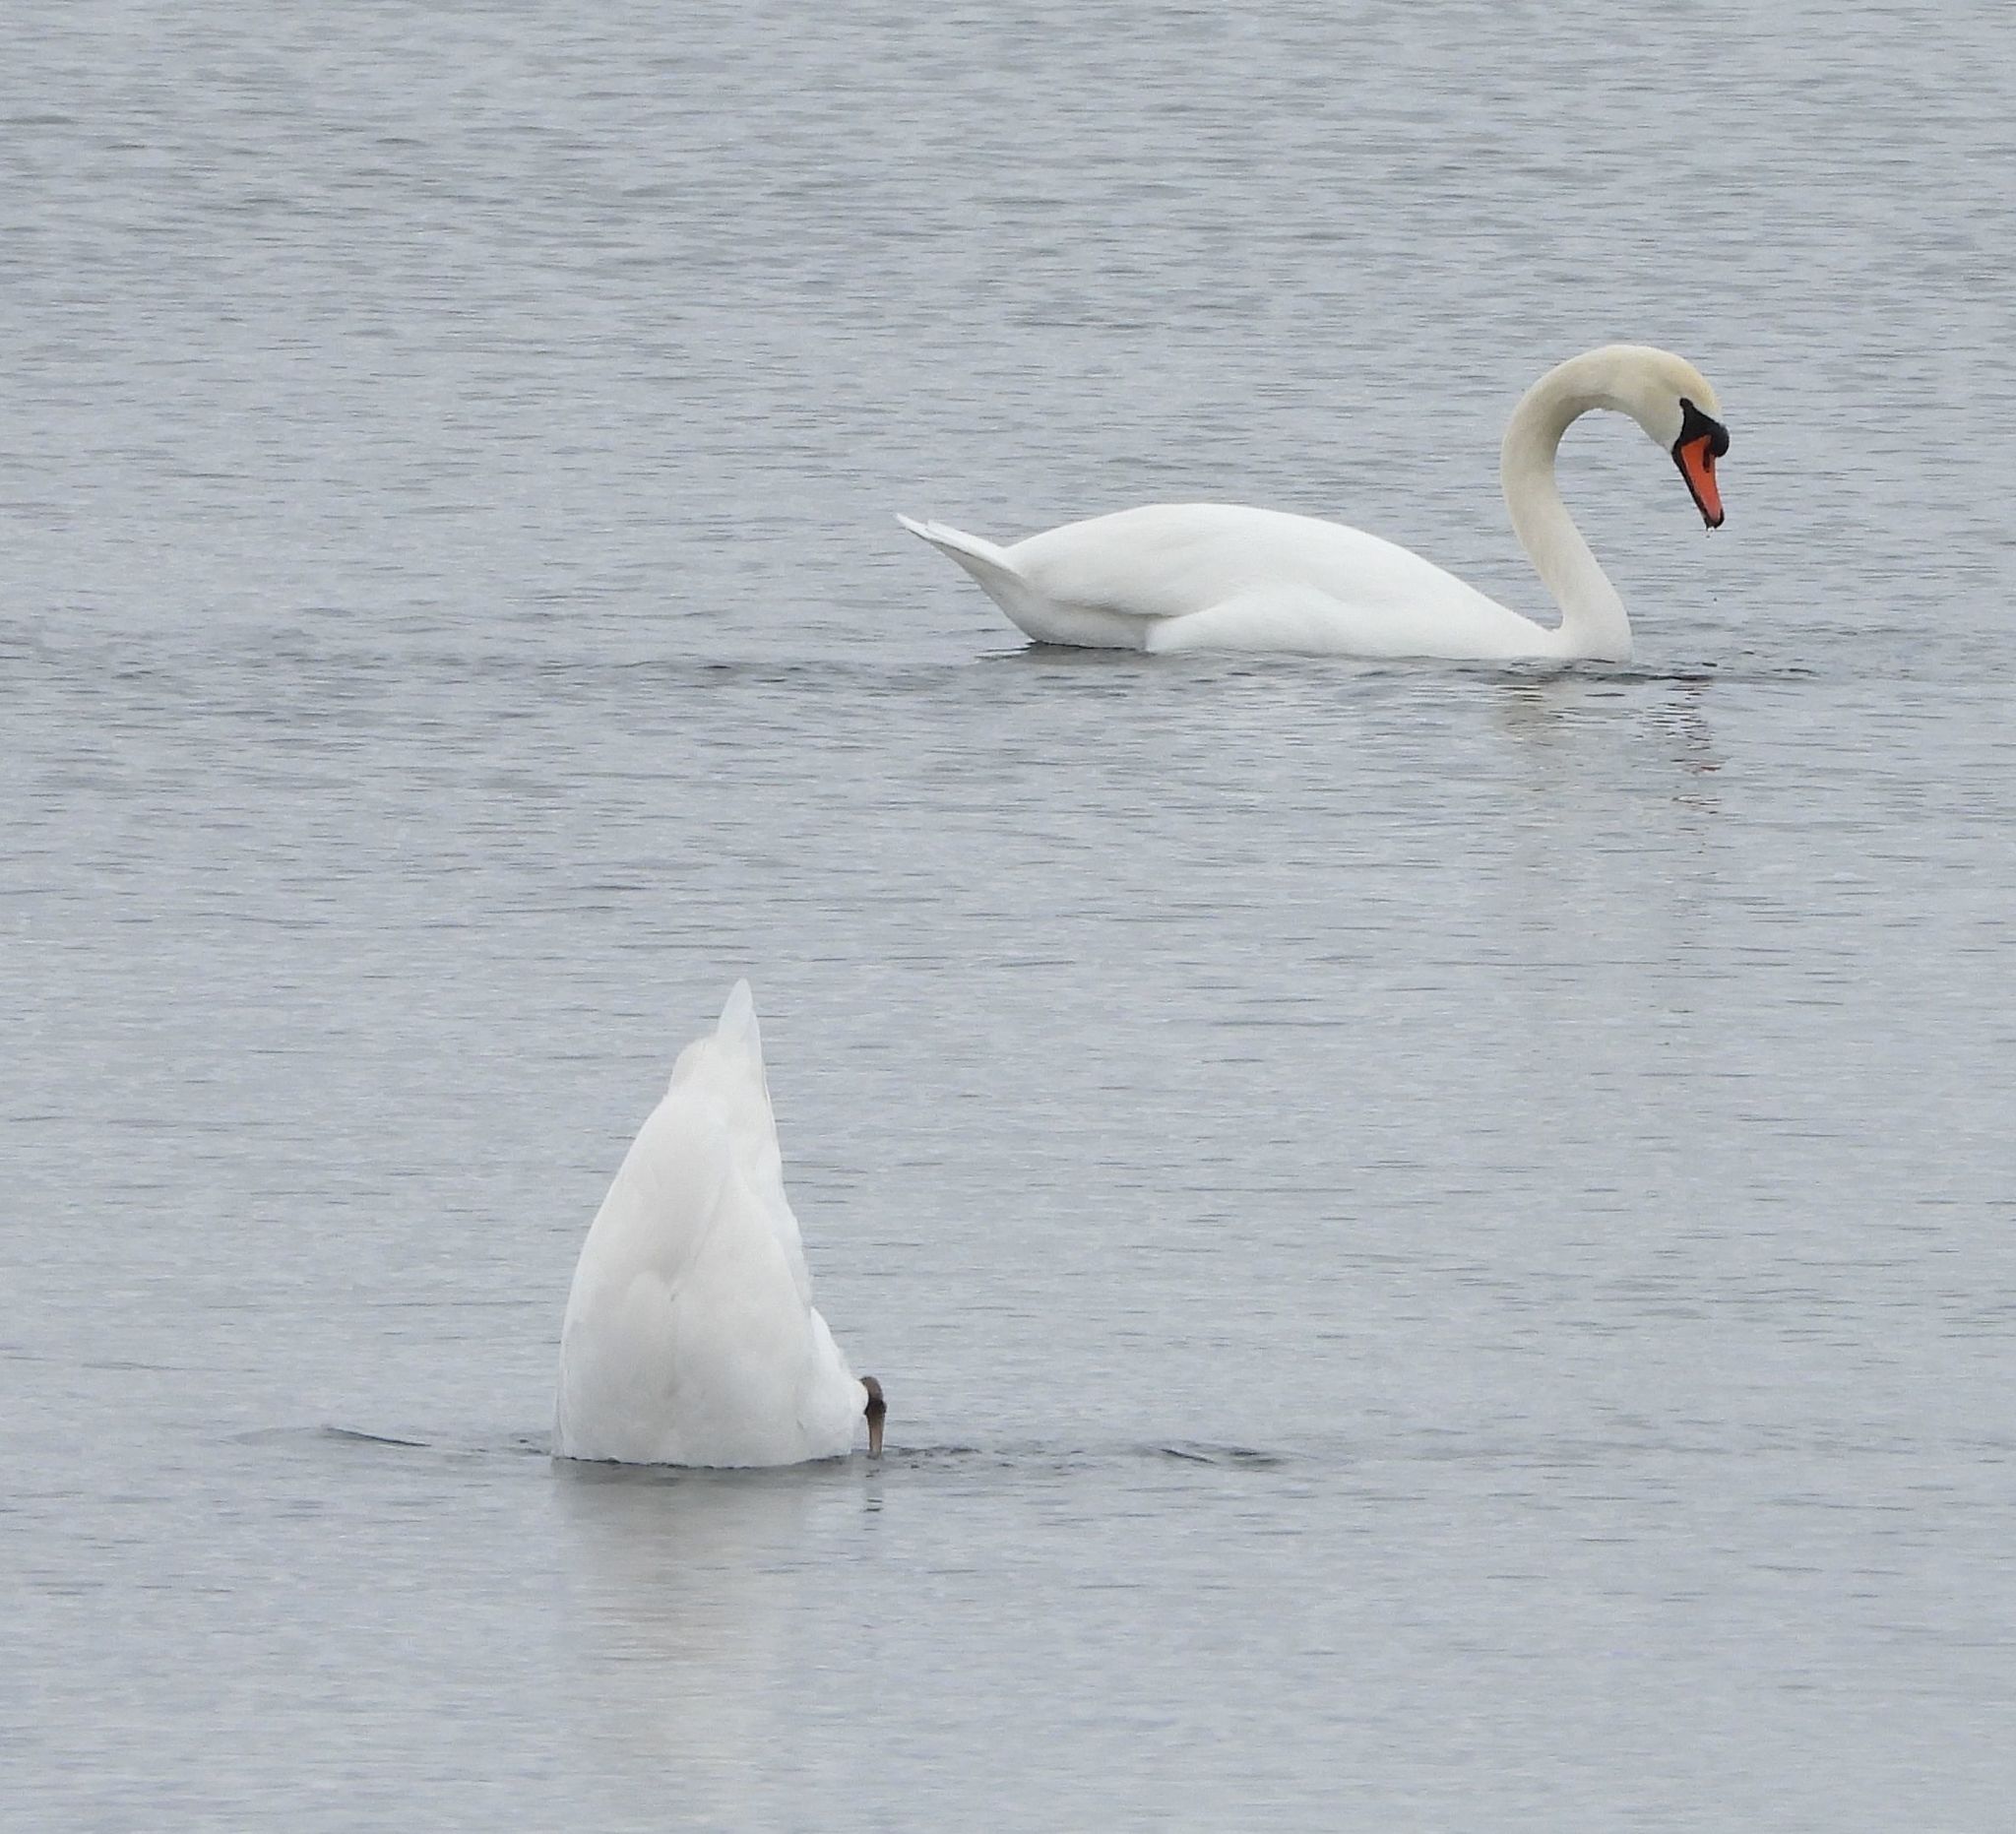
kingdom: Animalia
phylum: Chordata
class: Aves
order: Anseriformes
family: Anatidae
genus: Cygnus
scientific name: Cygnus olor
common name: Mute swan
